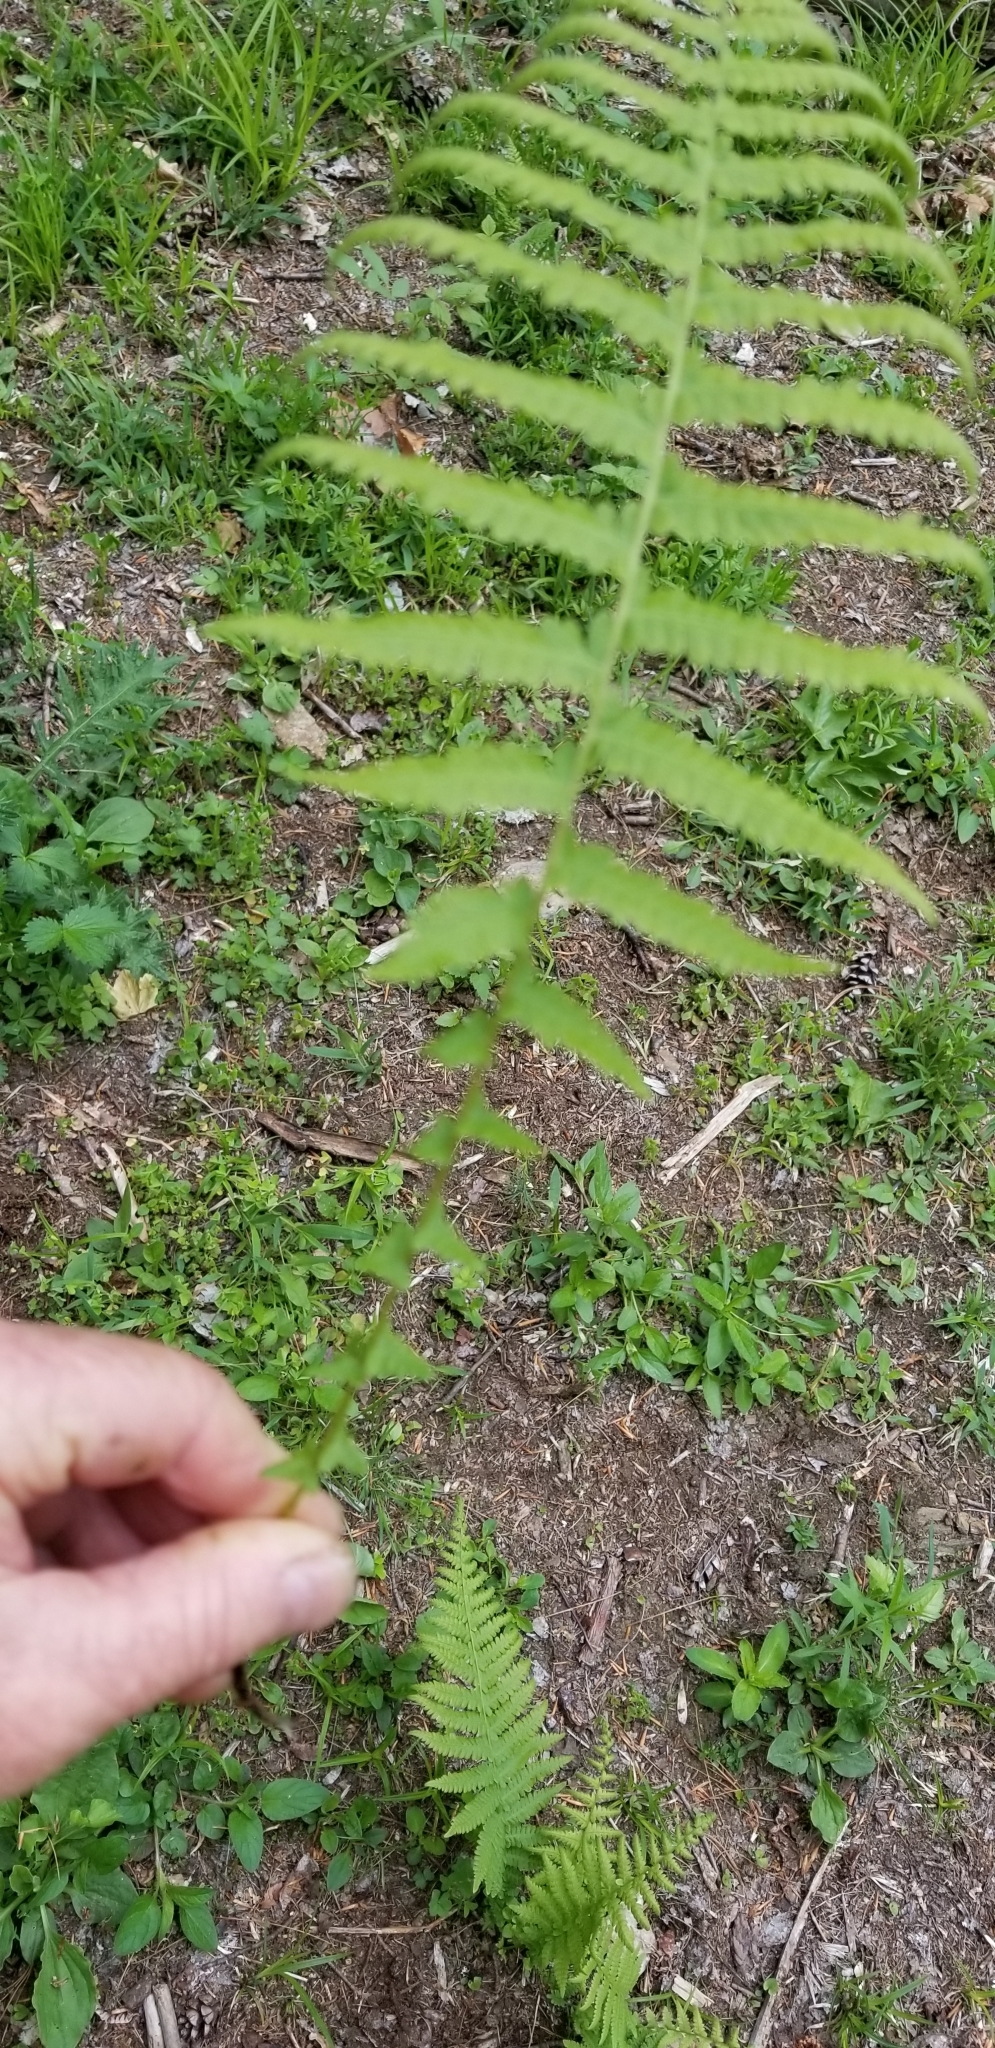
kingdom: Plantae
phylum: Tracheophyta
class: Polypodiopsida
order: Polypodiales
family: Thelypteridaceae
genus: Amauropelta
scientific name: Amauropelta noveboracensis
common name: New york fern
